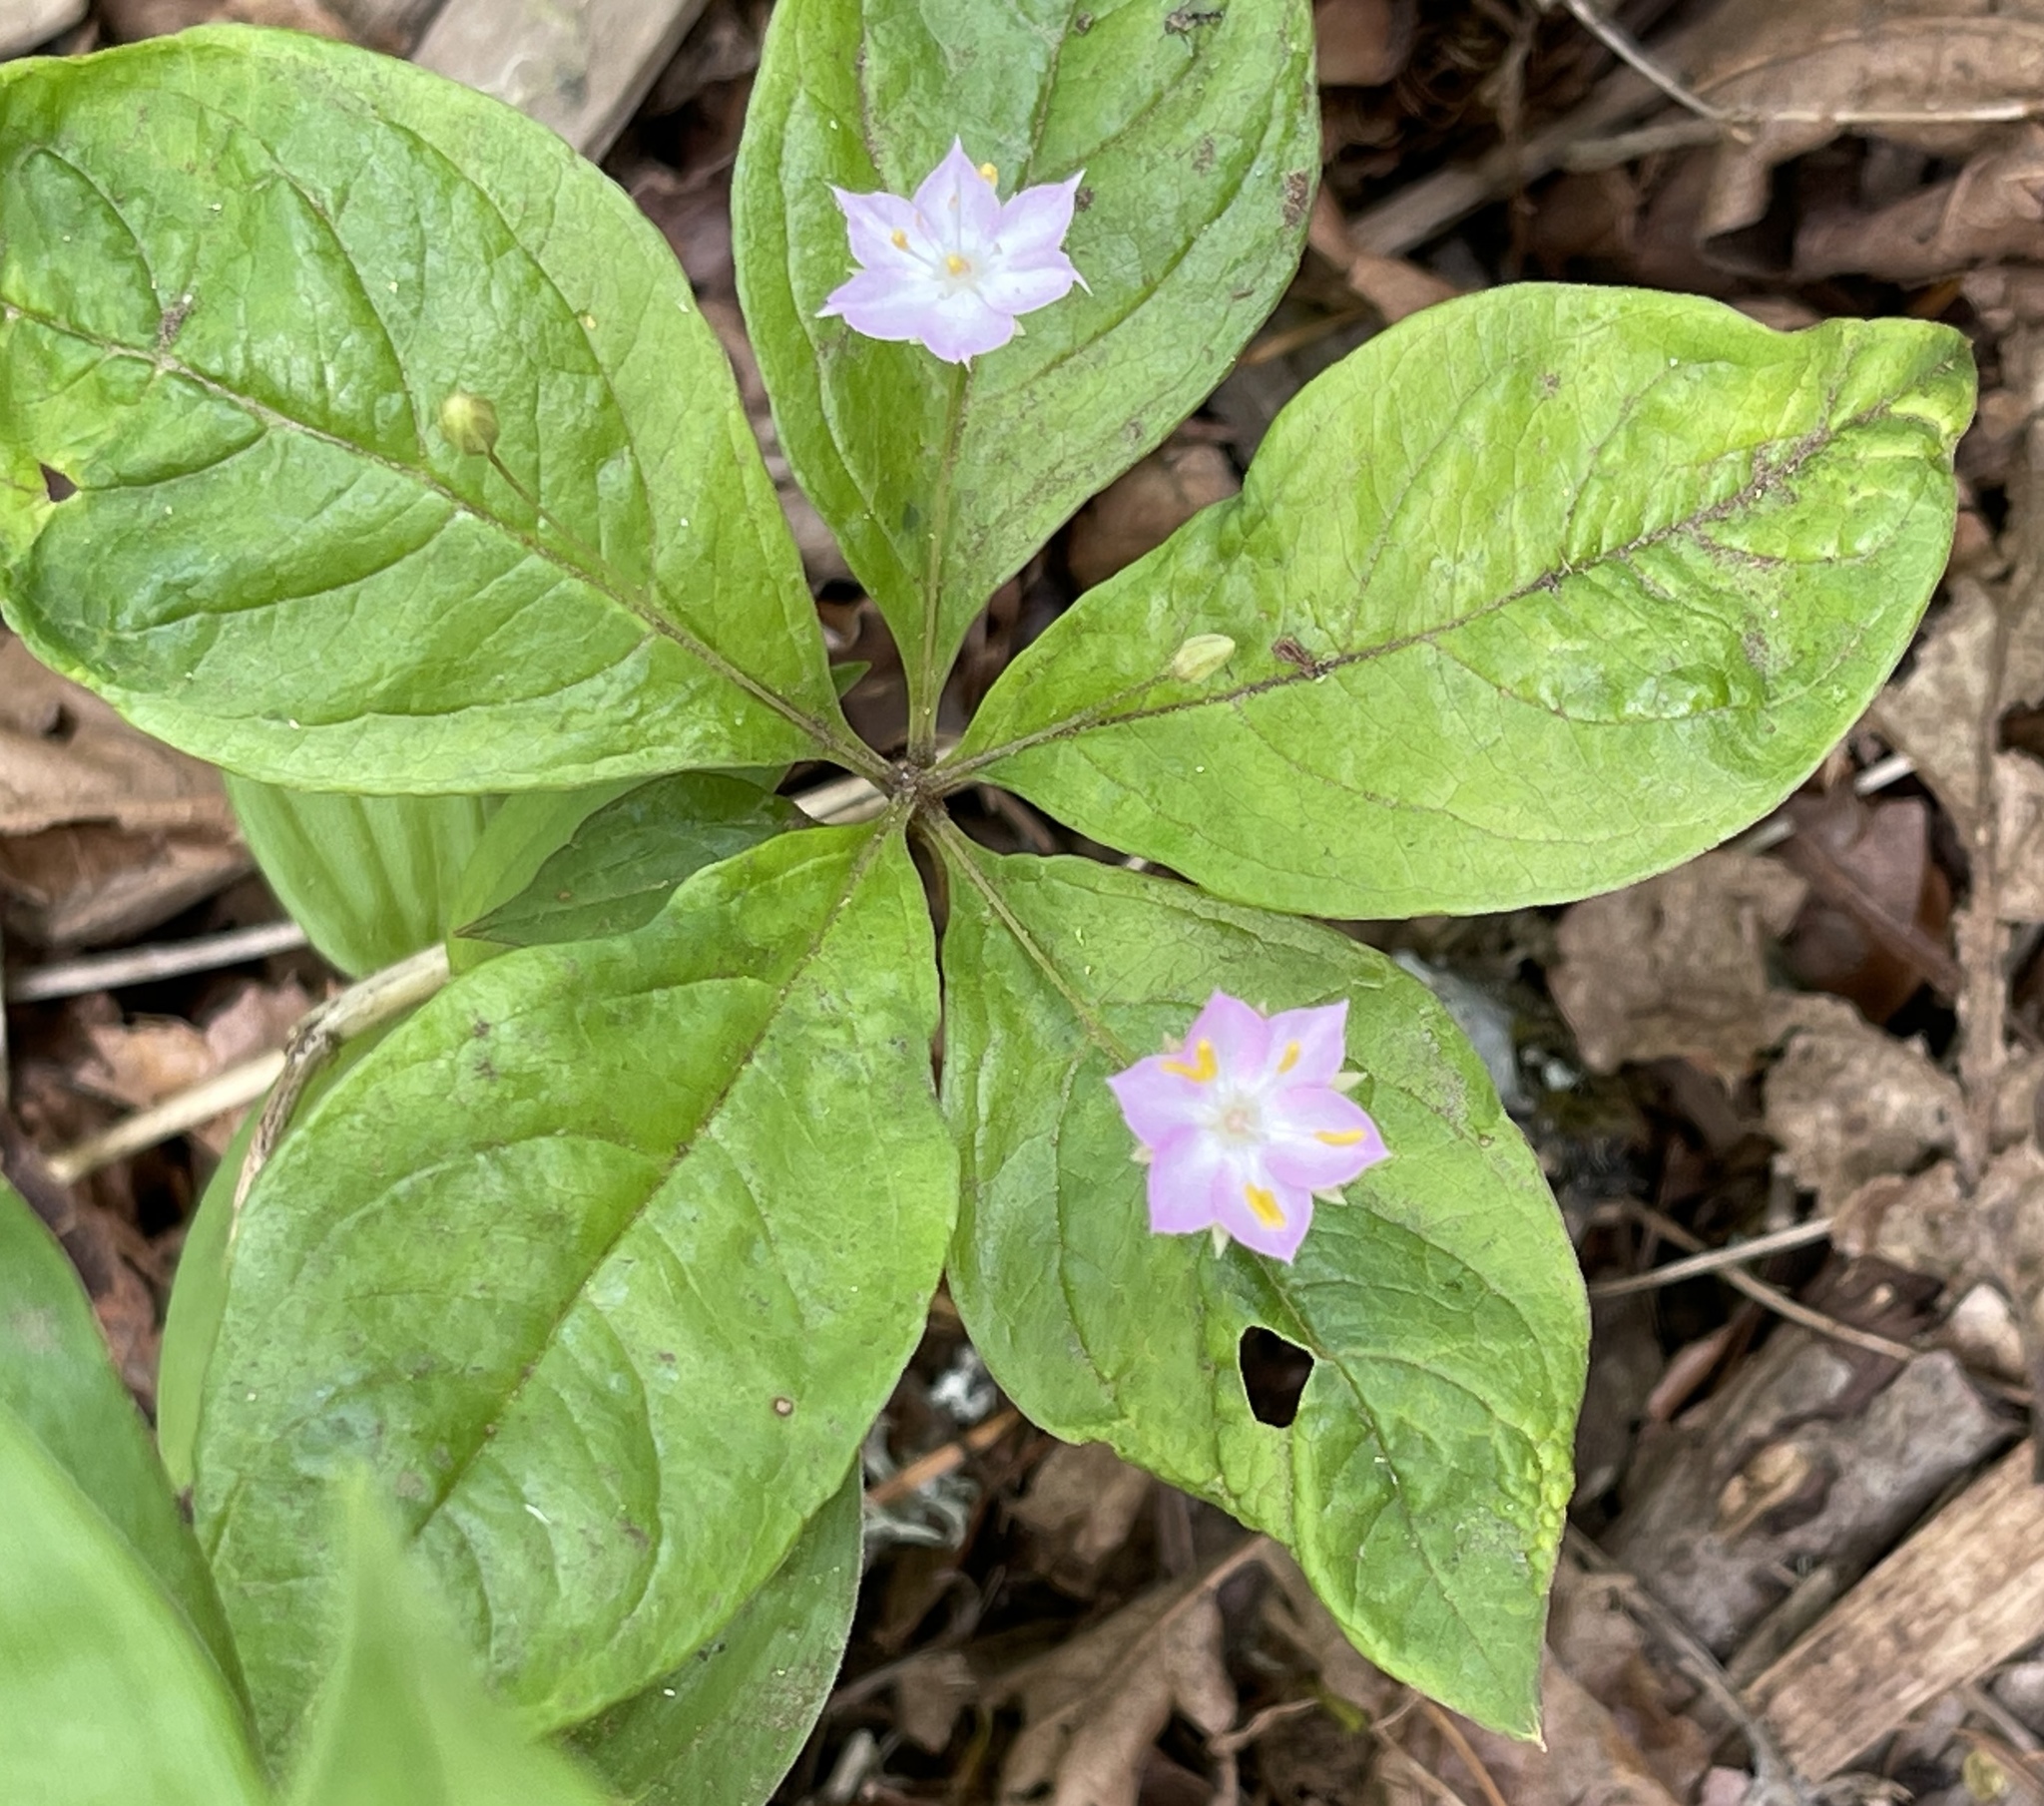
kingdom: Plantae
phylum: Tracheophyta
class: Magnoliopsida
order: Ericales
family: Primulaceae
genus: Lysimachia
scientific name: Lysimachia latifolia
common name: Pacific starflower
